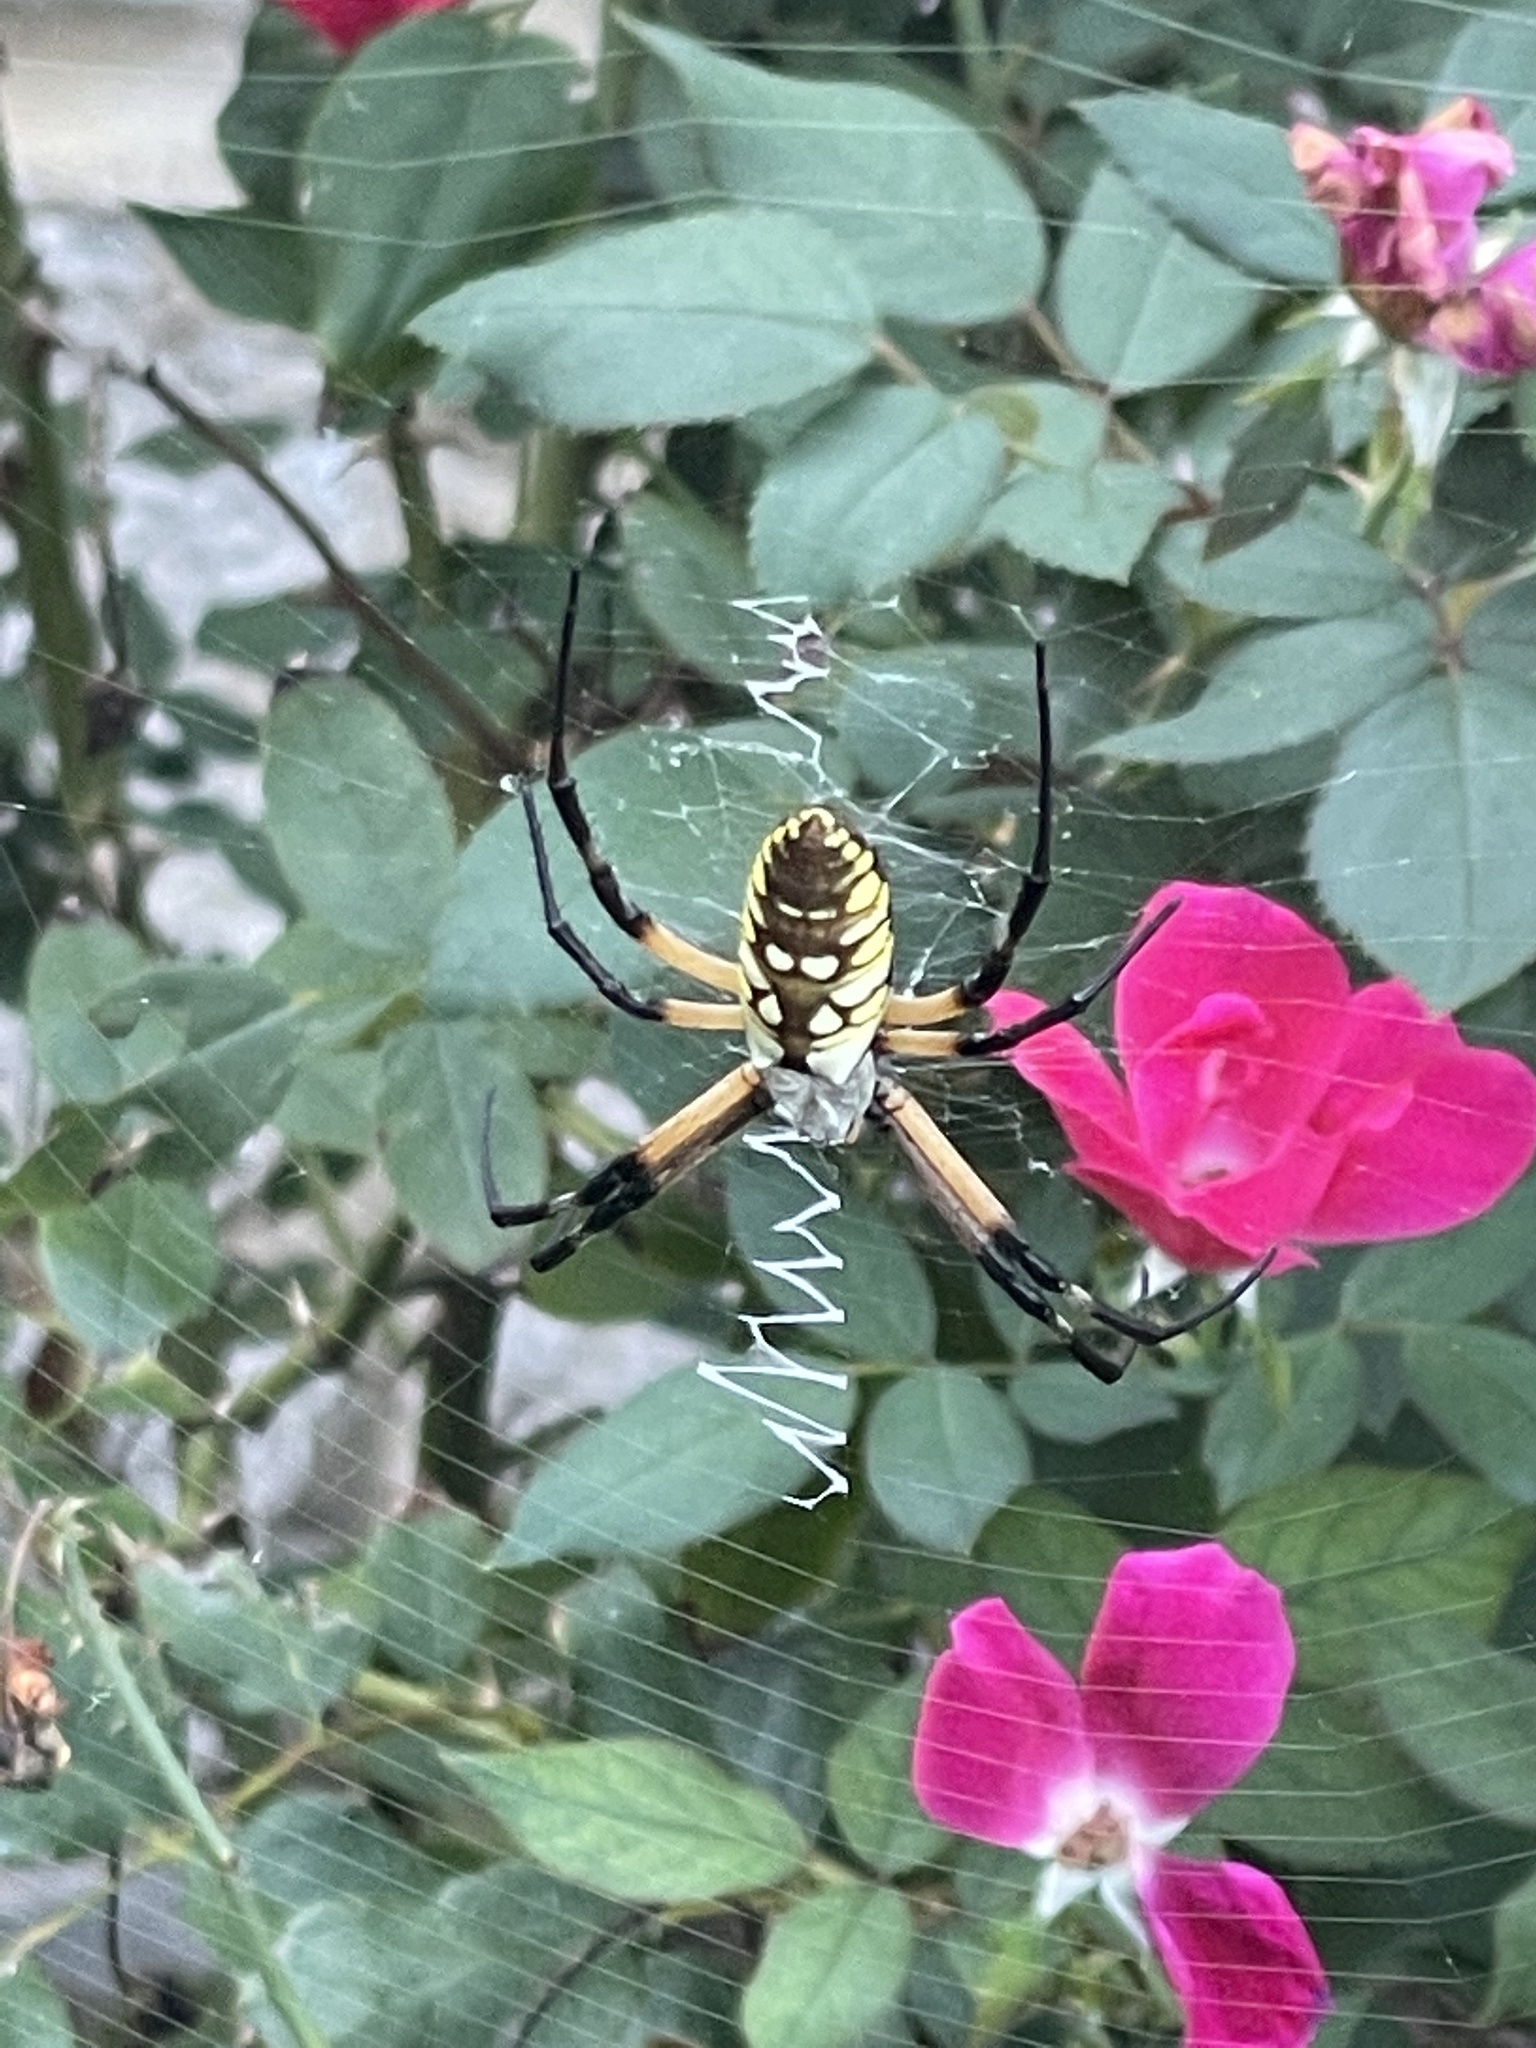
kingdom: Animalia
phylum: Arthropoda
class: Arachnida
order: Araneae
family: Araneidae
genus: Argiope
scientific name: Argiope aurantia
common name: Orb weavers
